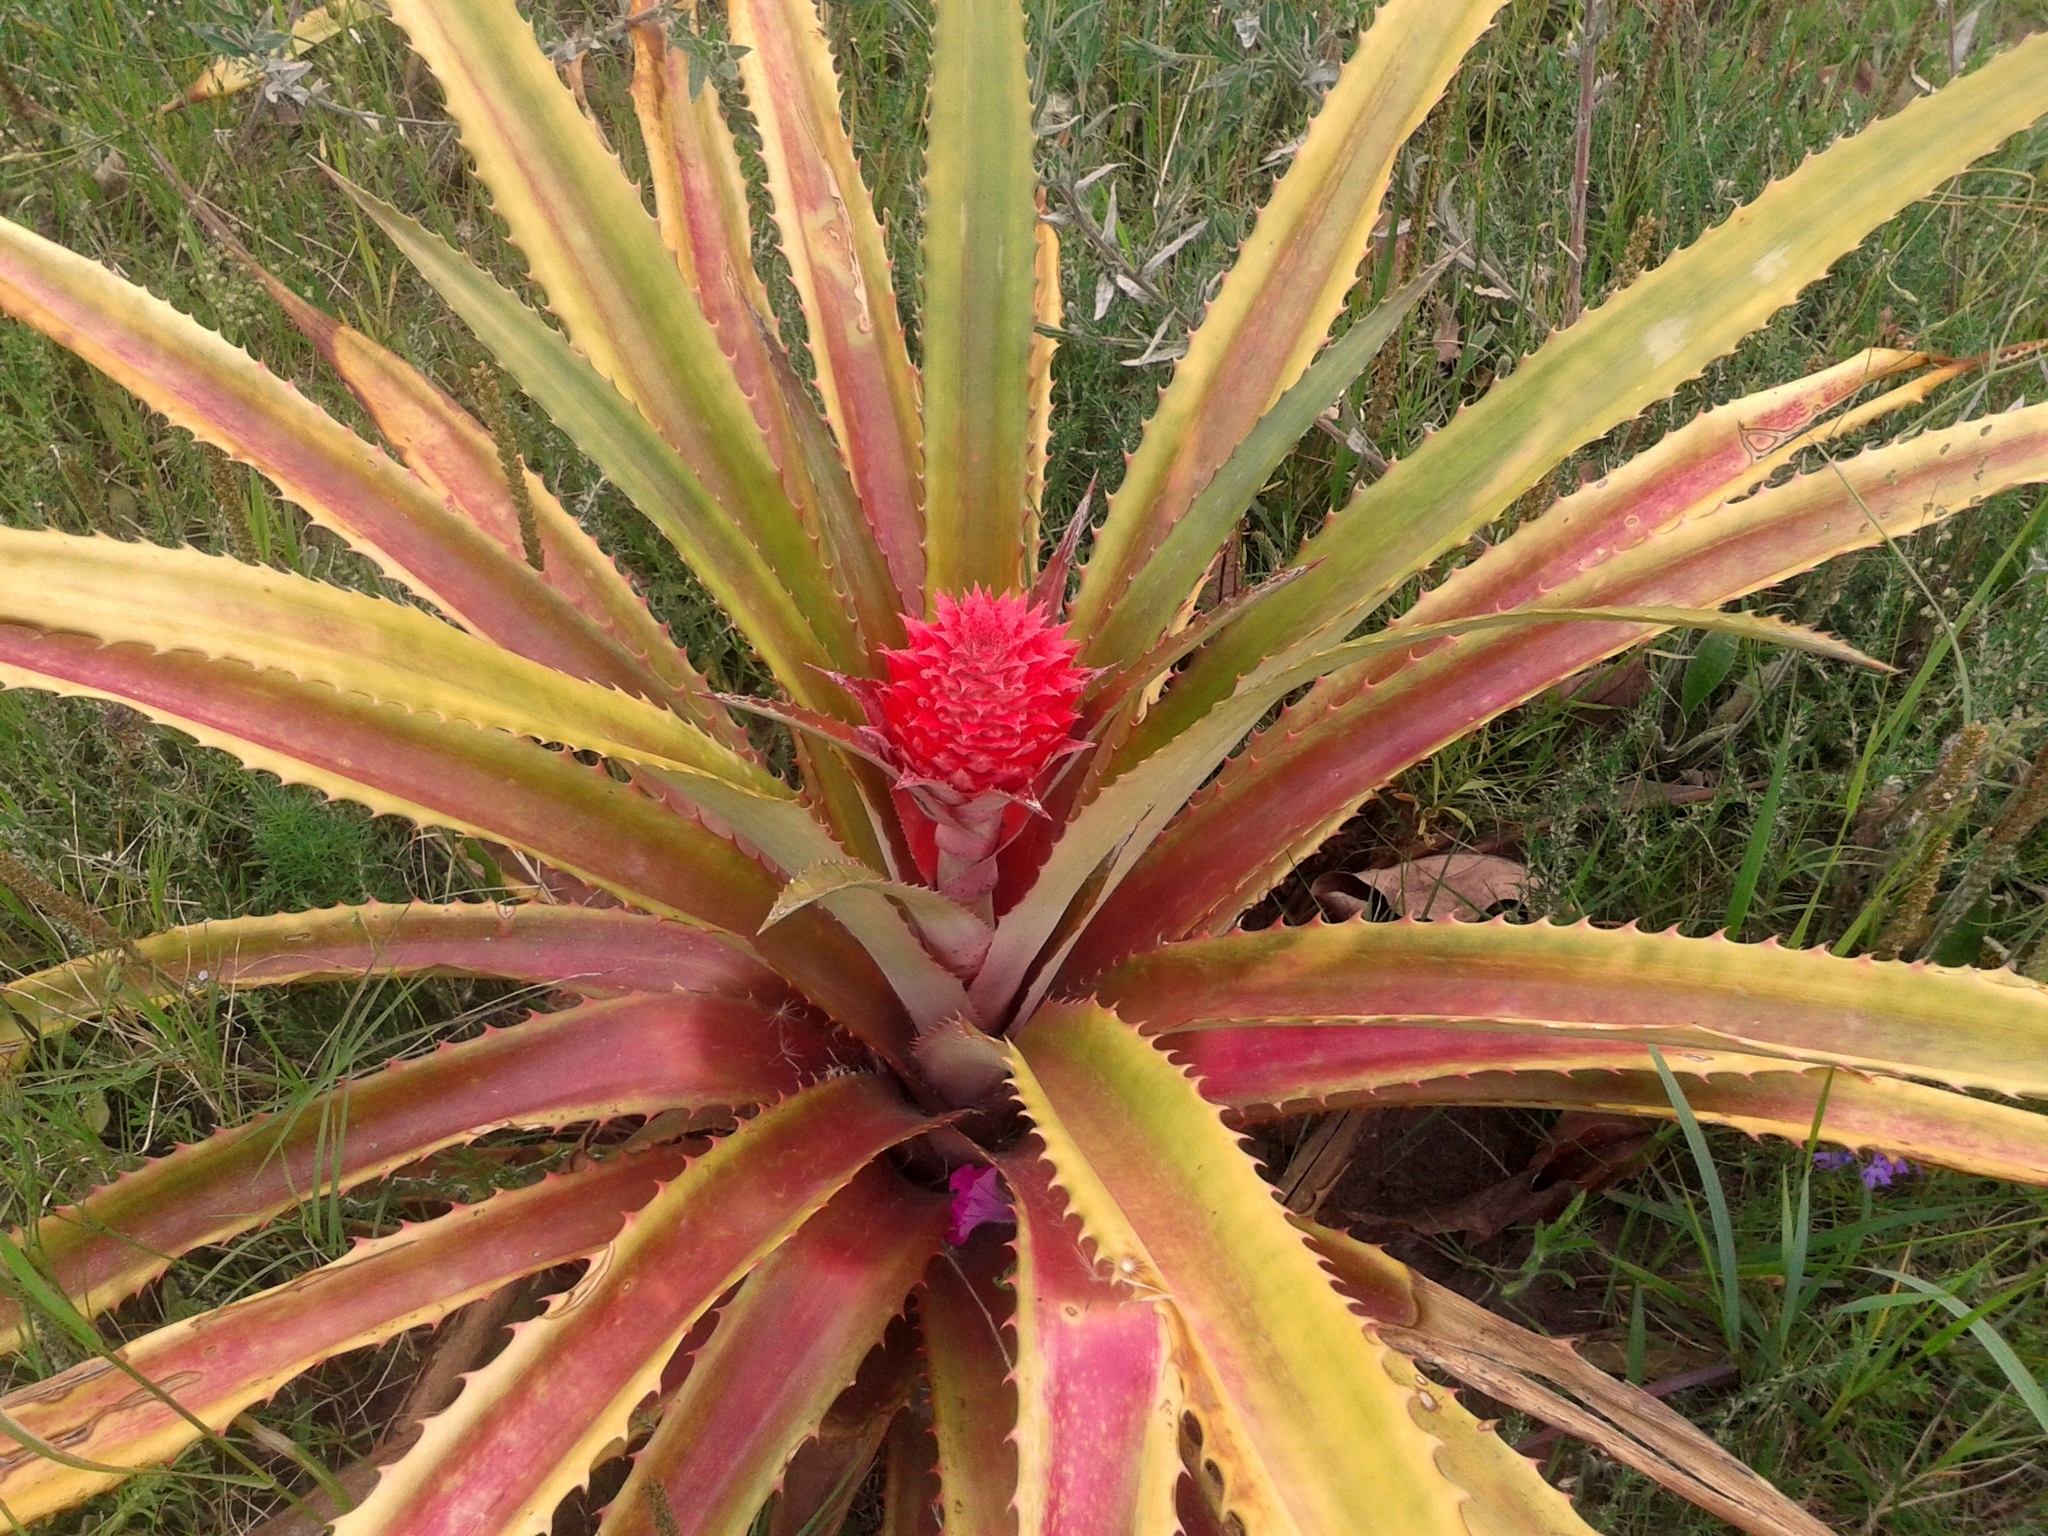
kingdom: Plantae
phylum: Tracheophyta
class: Liliopsida
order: Poales
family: Bromeliaceae
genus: Ananas
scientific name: Ananas comosus
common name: Pineapple
